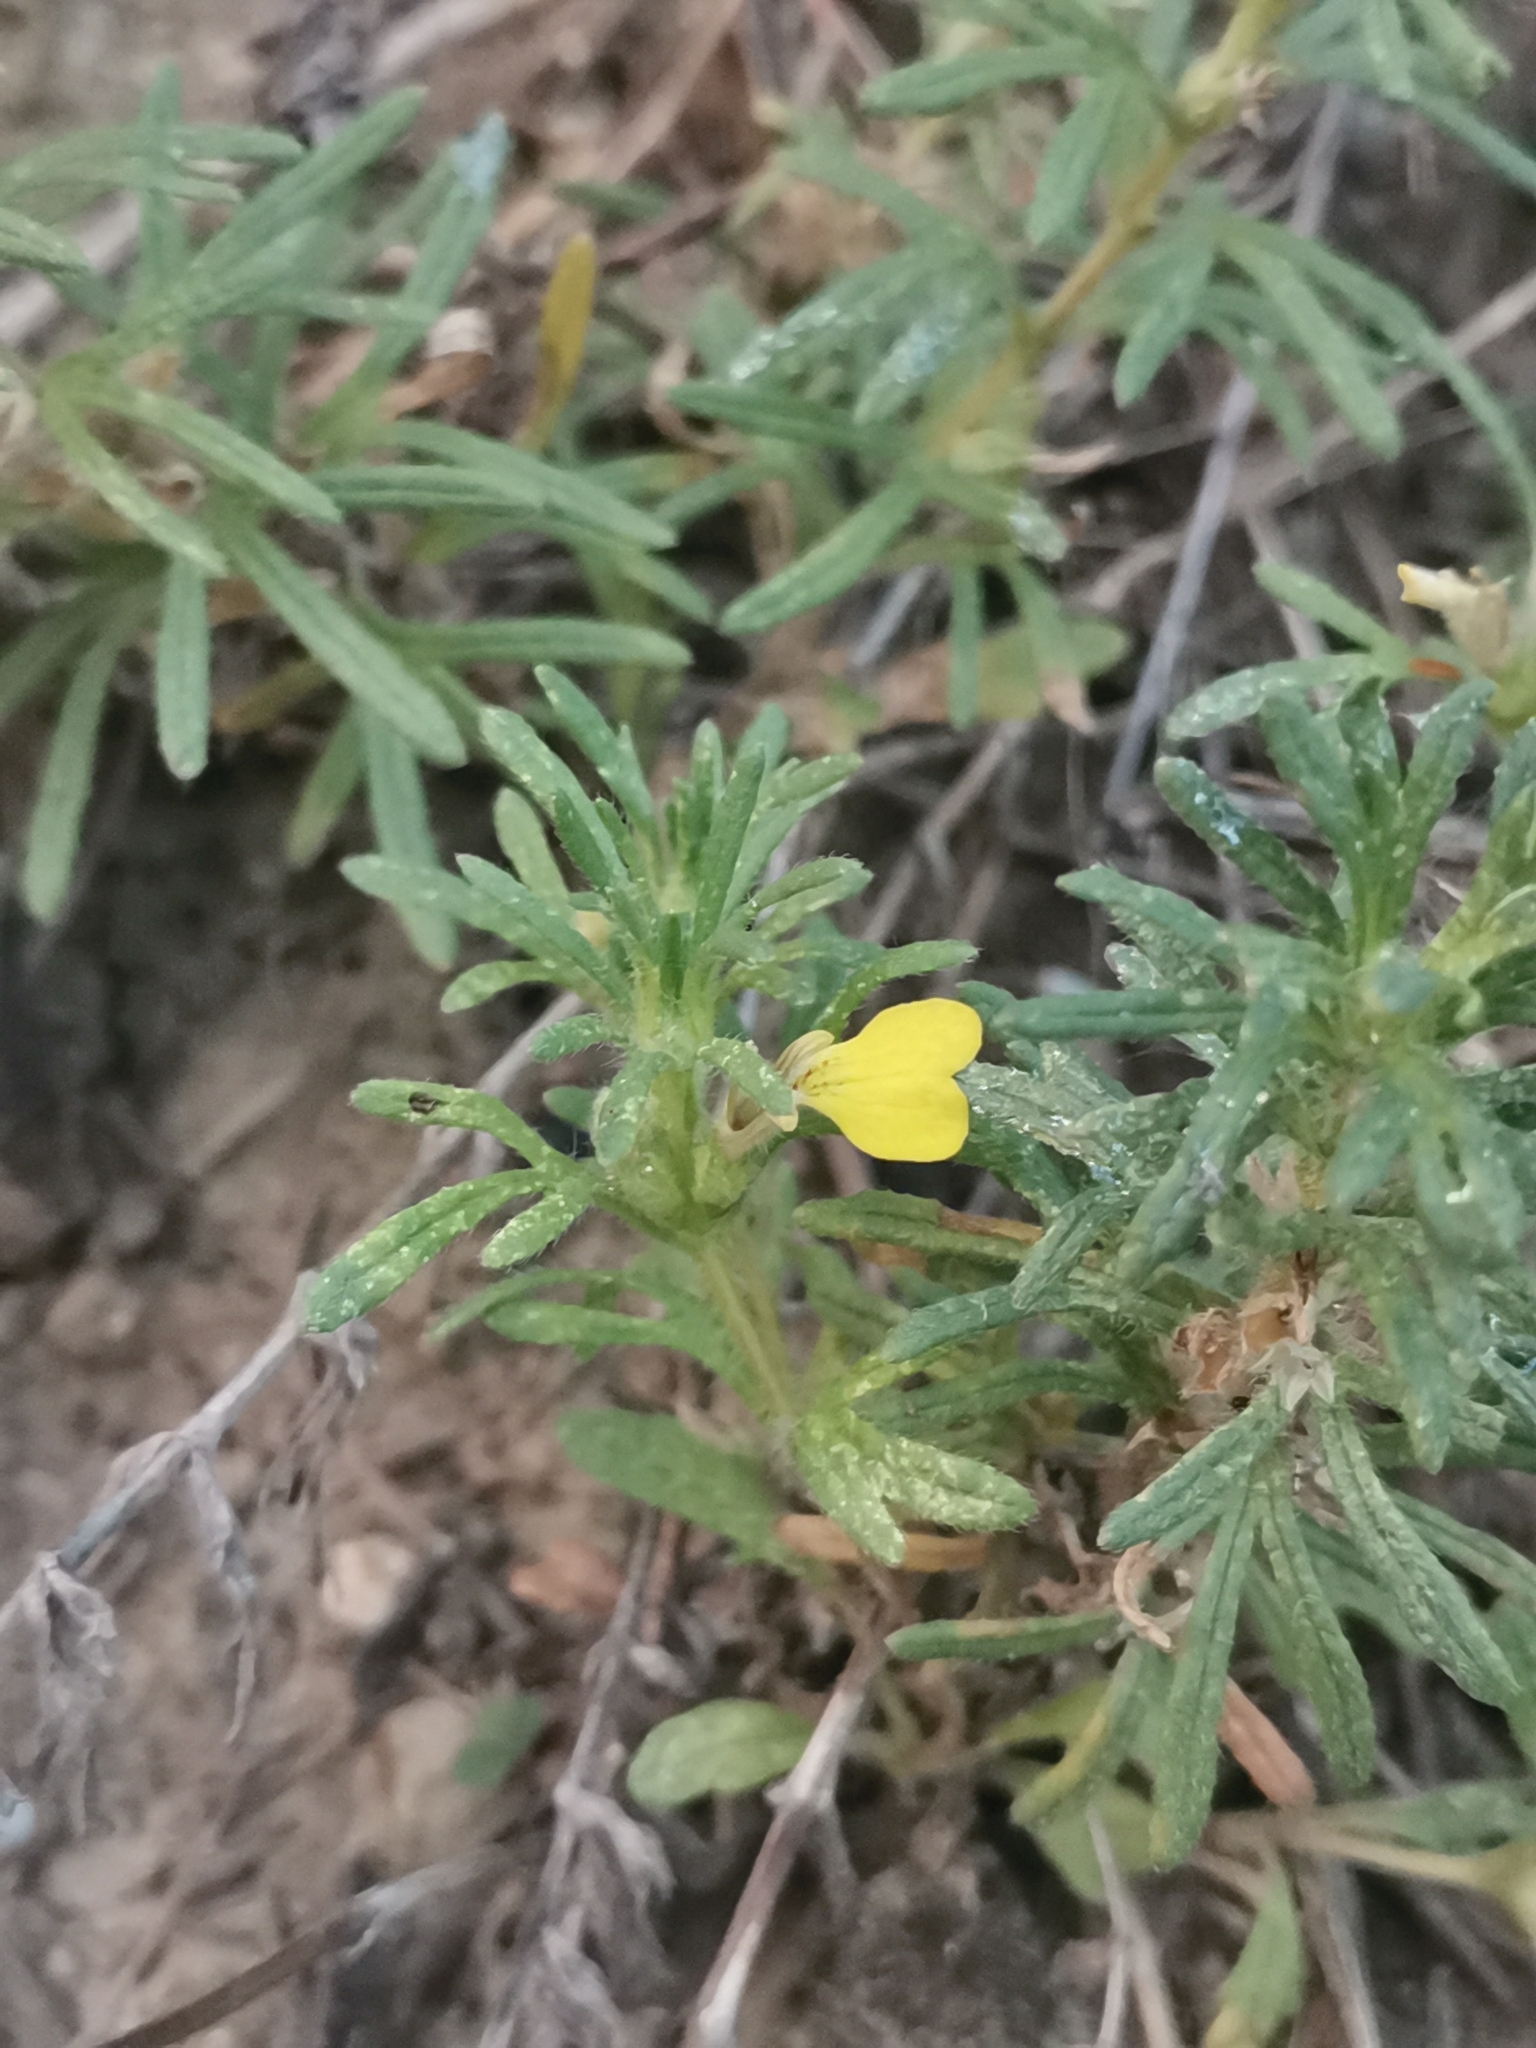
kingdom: Plantae
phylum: Tracheophyta
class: Magnoliopsida
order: Lamiales
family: Lamiaceae
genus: Ajuga
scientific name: Ajuga chamaepitys
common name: Ground-pine
